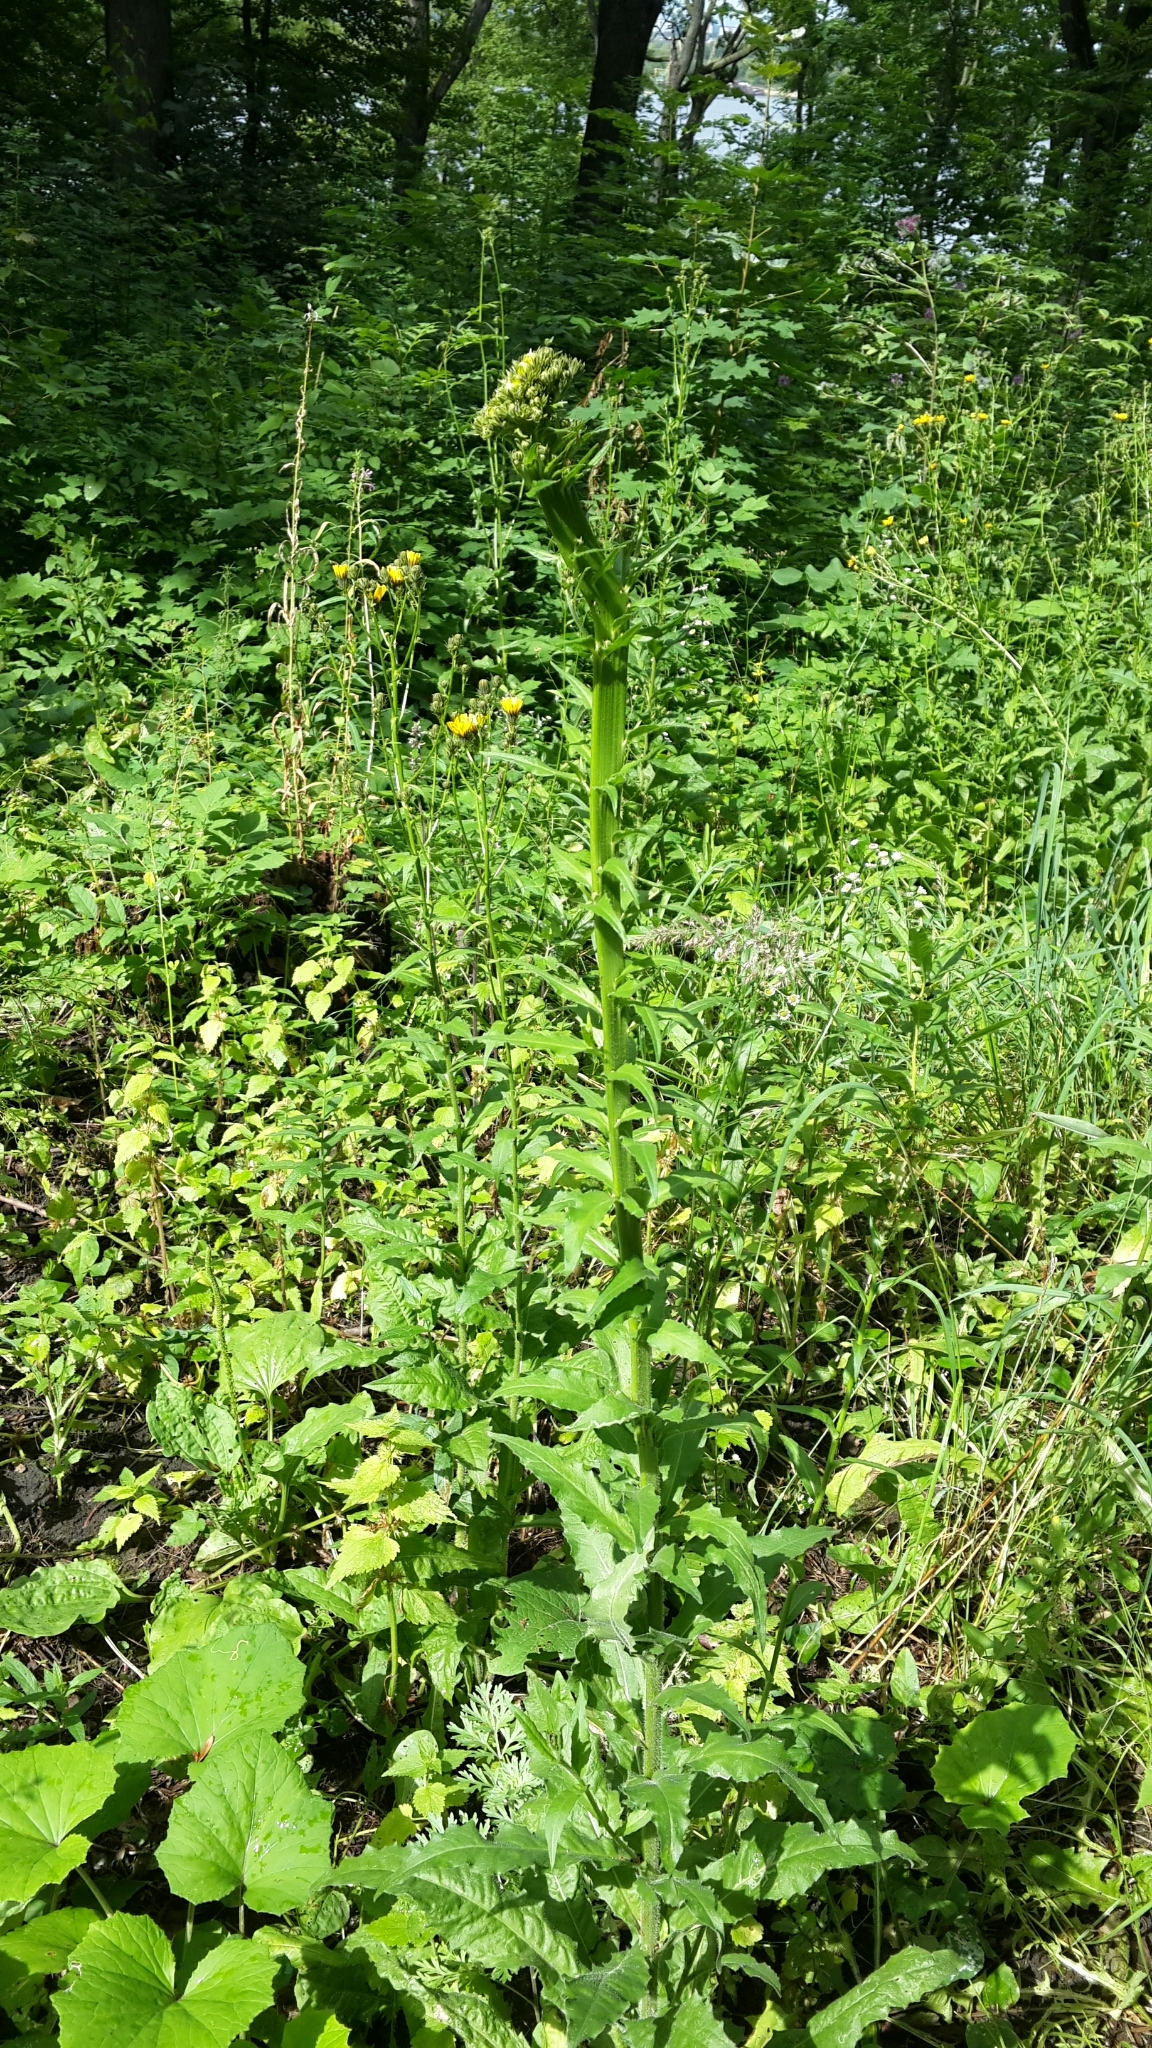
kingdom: Plantae
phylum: Tracheophyta
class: Magnoliopsida
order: Brassicales
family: Brassicaceae
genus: Arabis
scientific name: Arabis sagittata
